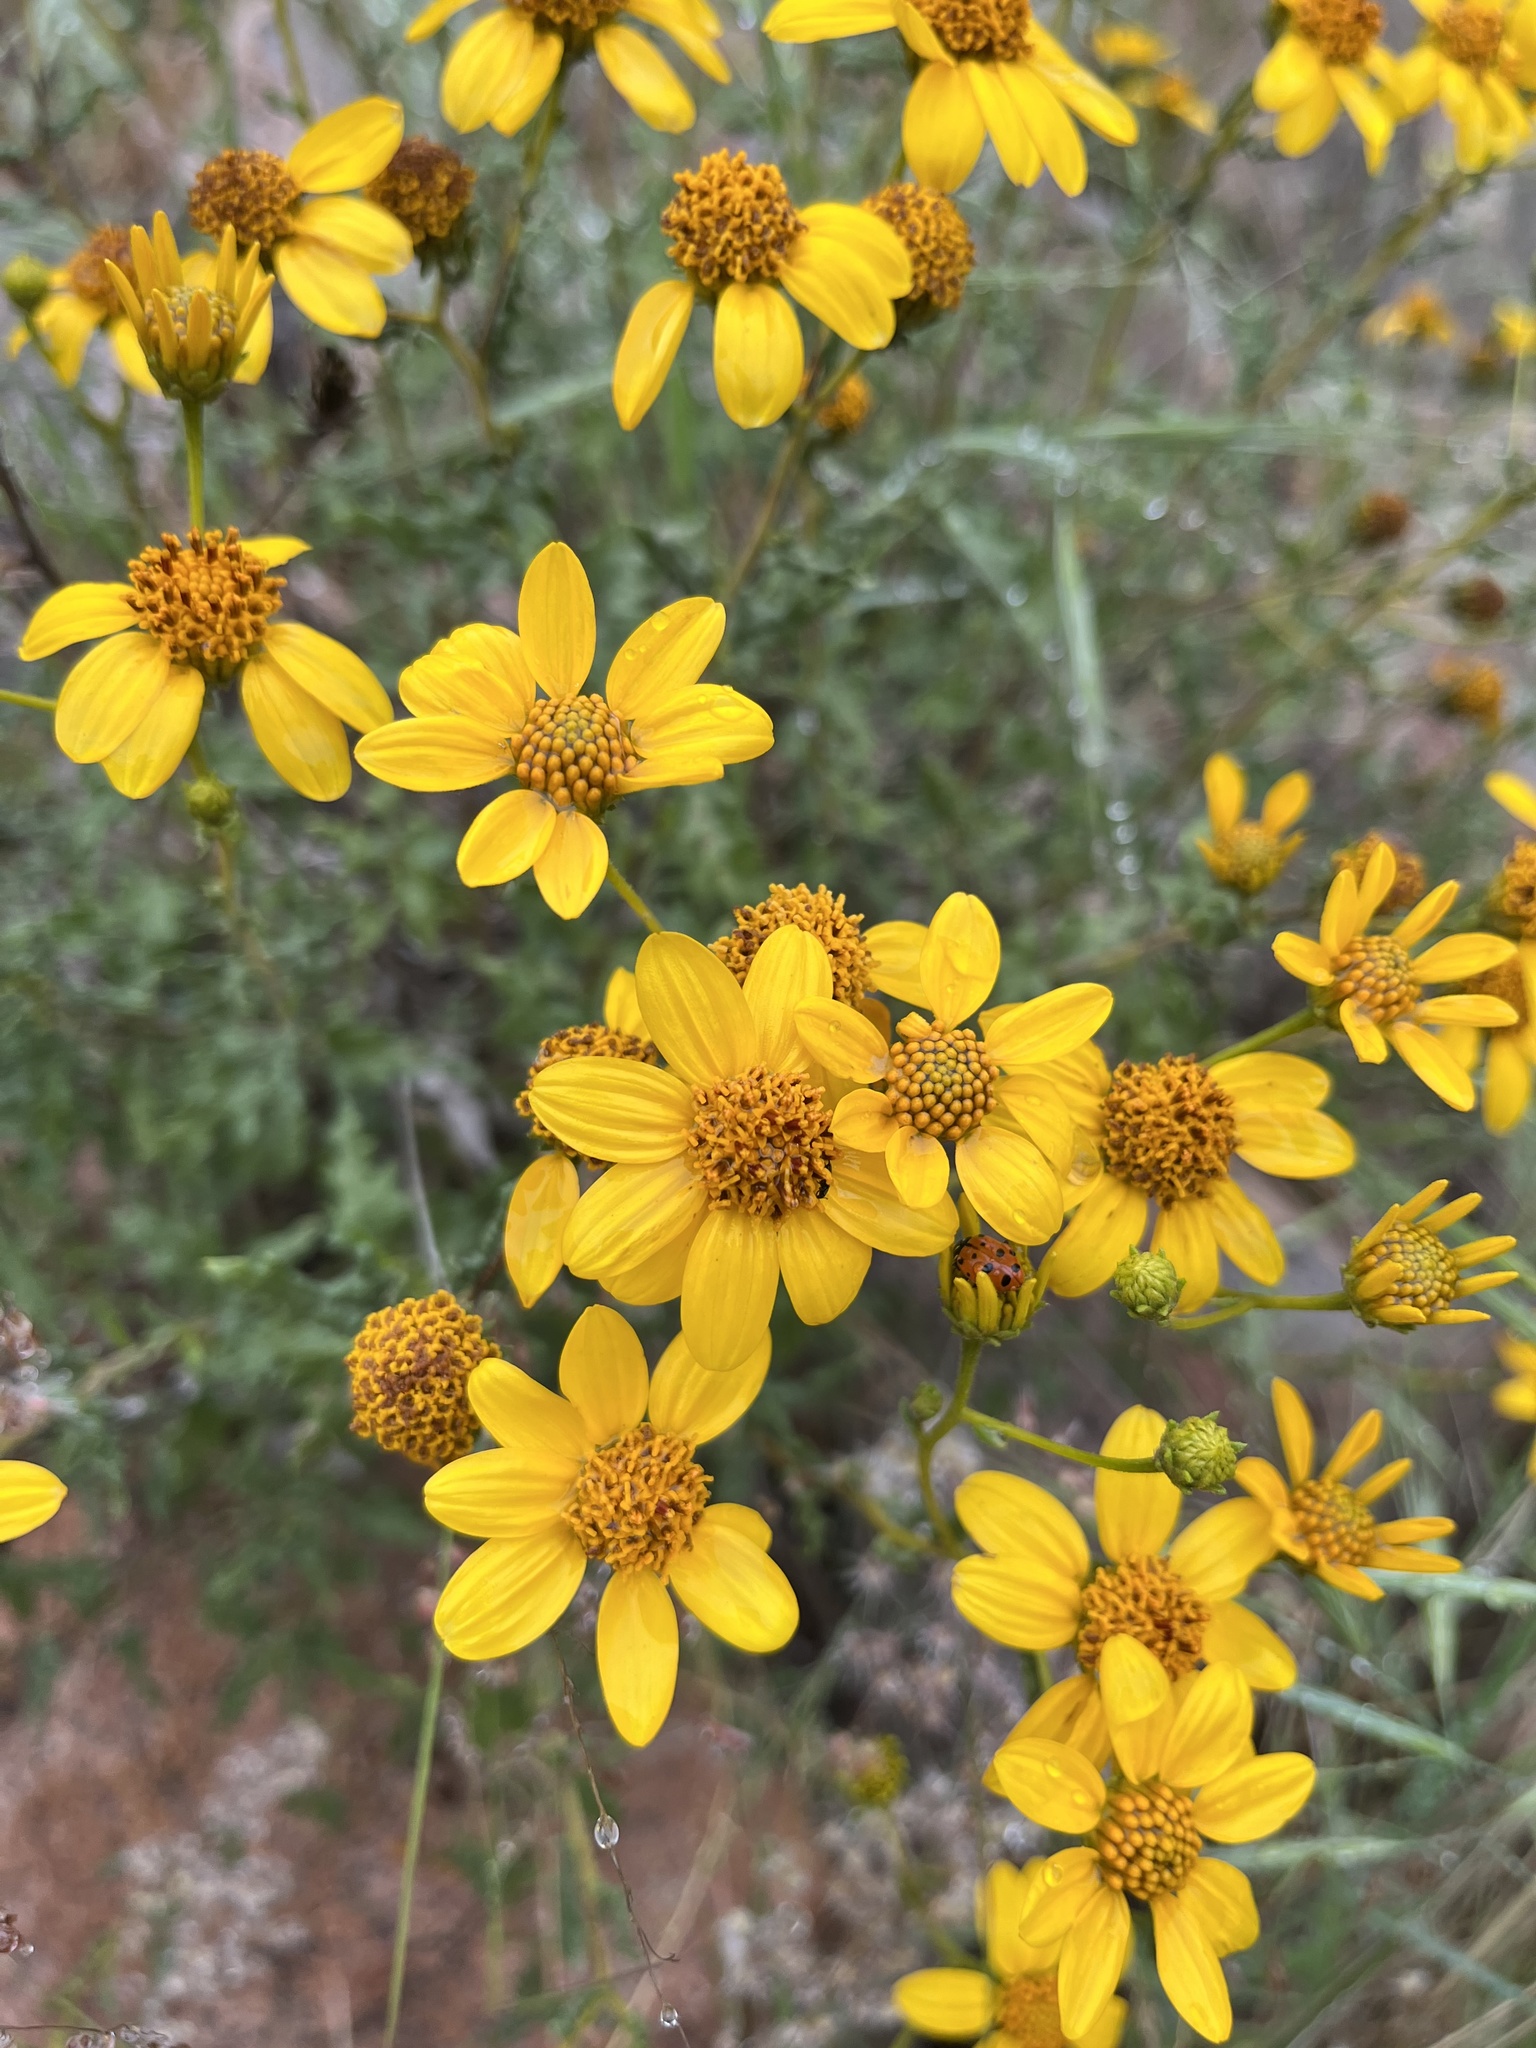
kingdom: Plantae
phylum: Tracheophyta
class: Magnoliopsida
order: Asterales
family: Asteraceae
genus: Bahiopsis
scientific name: Bahiopsis laciniata
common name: San diego county viguiera
